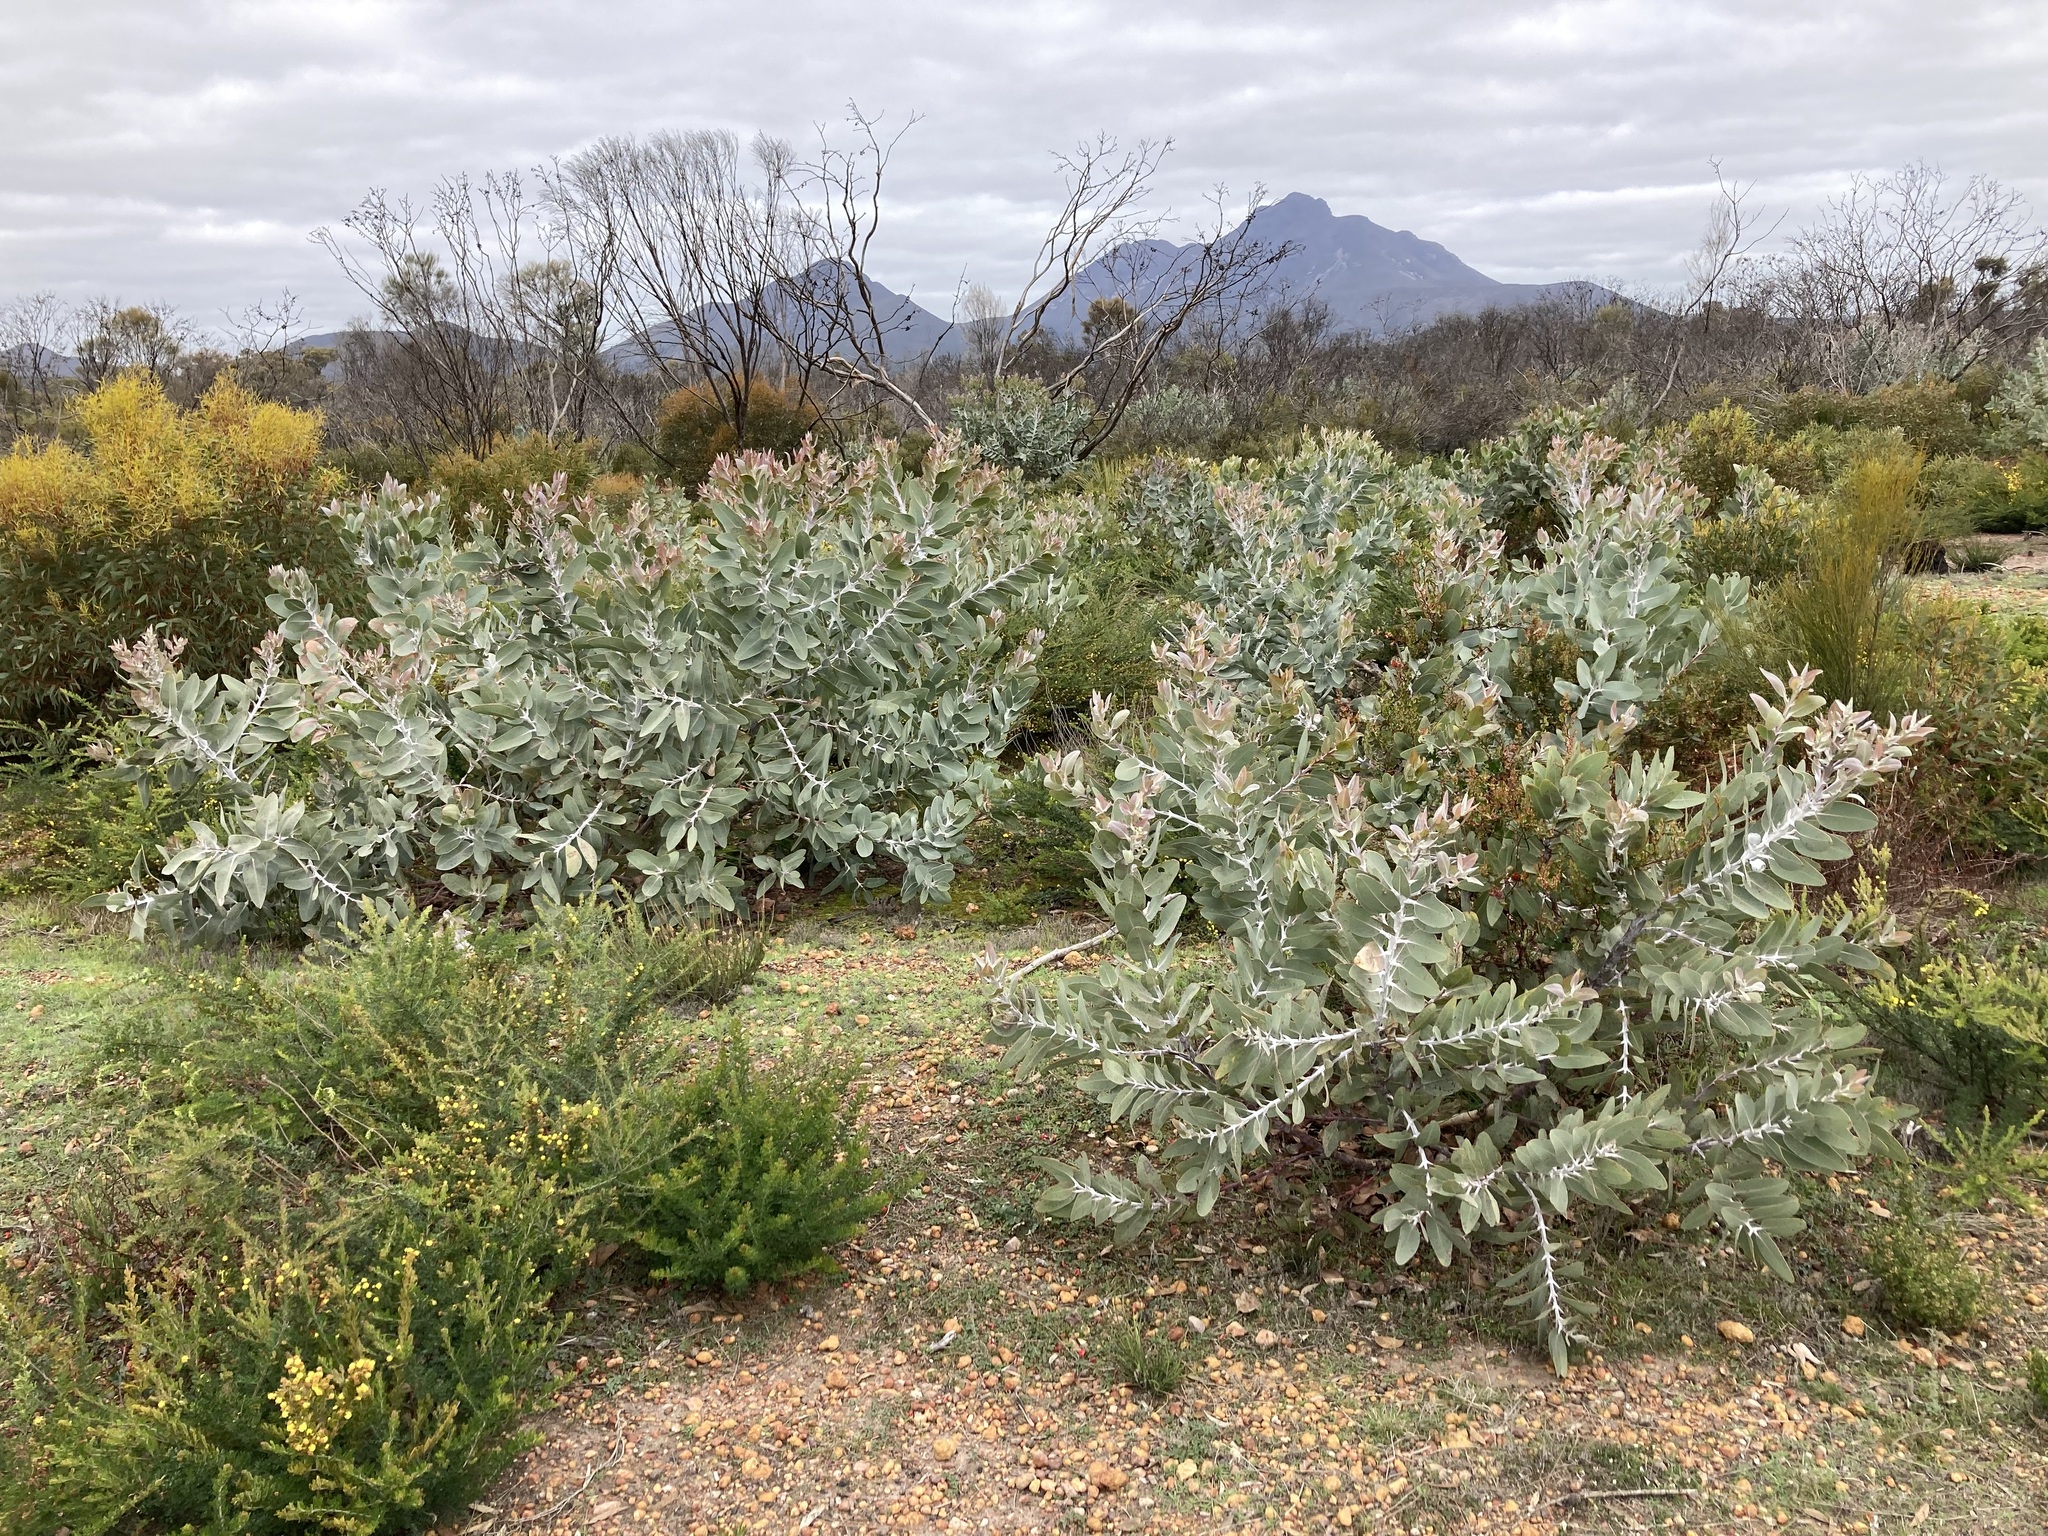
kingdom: Plantae
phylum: Tracheophyta
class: Magnoliopsida
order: Myrtales
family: Myrtaceae
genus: Eucalyptus
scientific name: Eucalyptus tetragona
